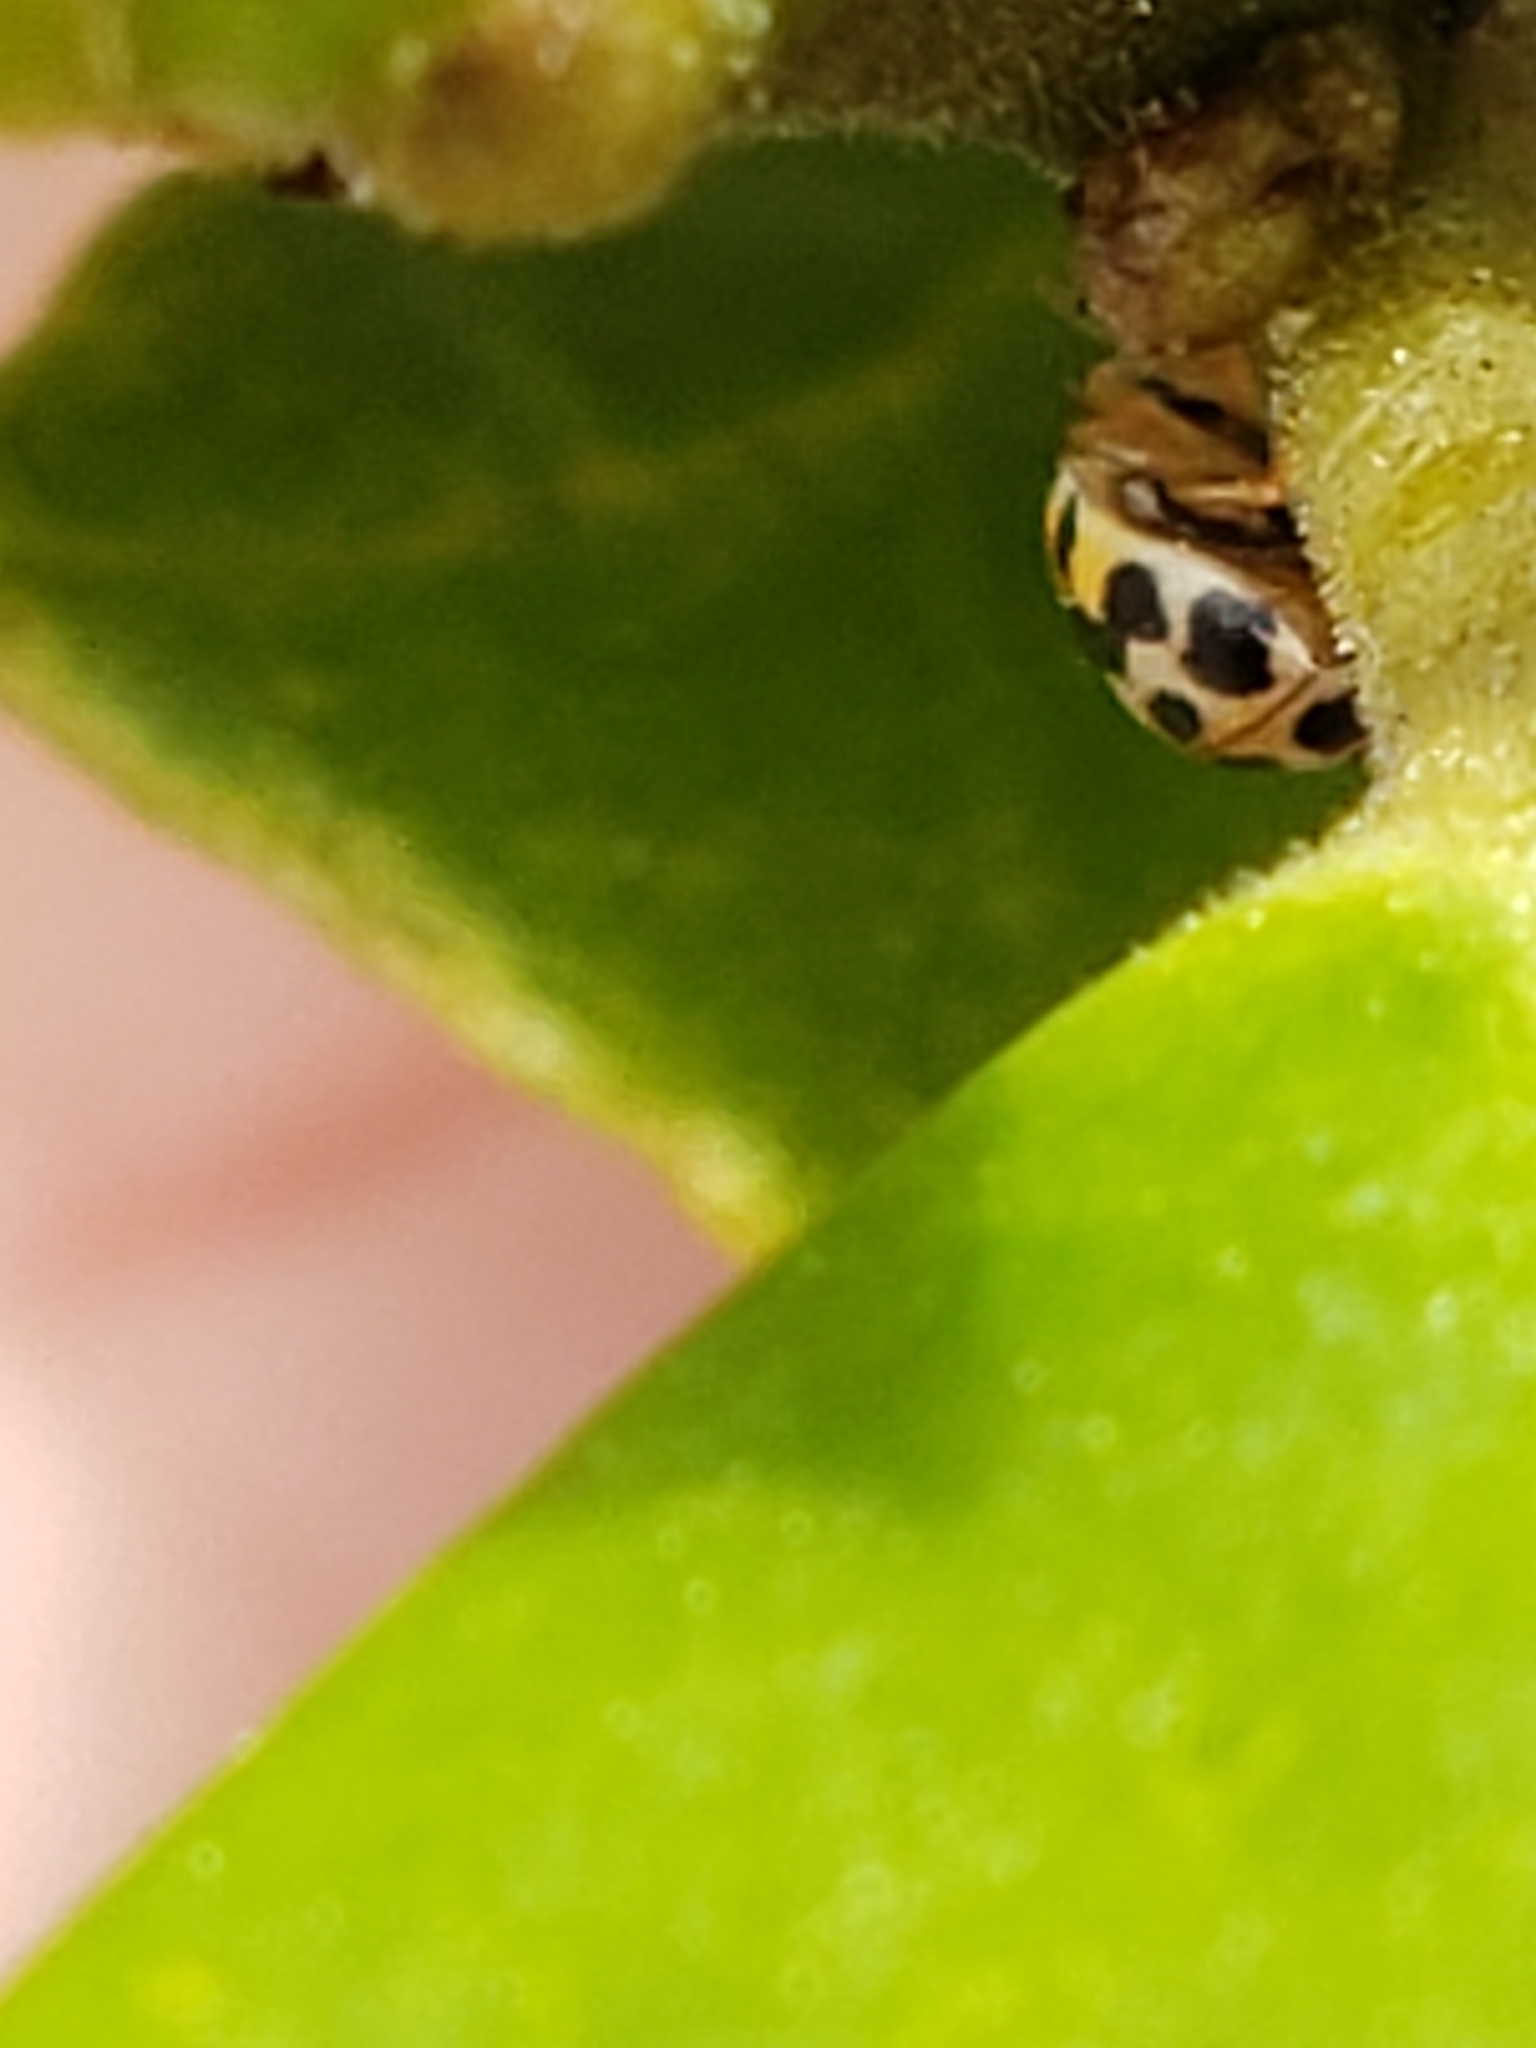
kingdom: Animalia
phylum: Arthropoda
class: Insecta
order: Coleoptera
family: Coccinellidae
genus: Psyllobora
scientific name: Psyllobora vigintimaculata
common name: Ladybird beetle
